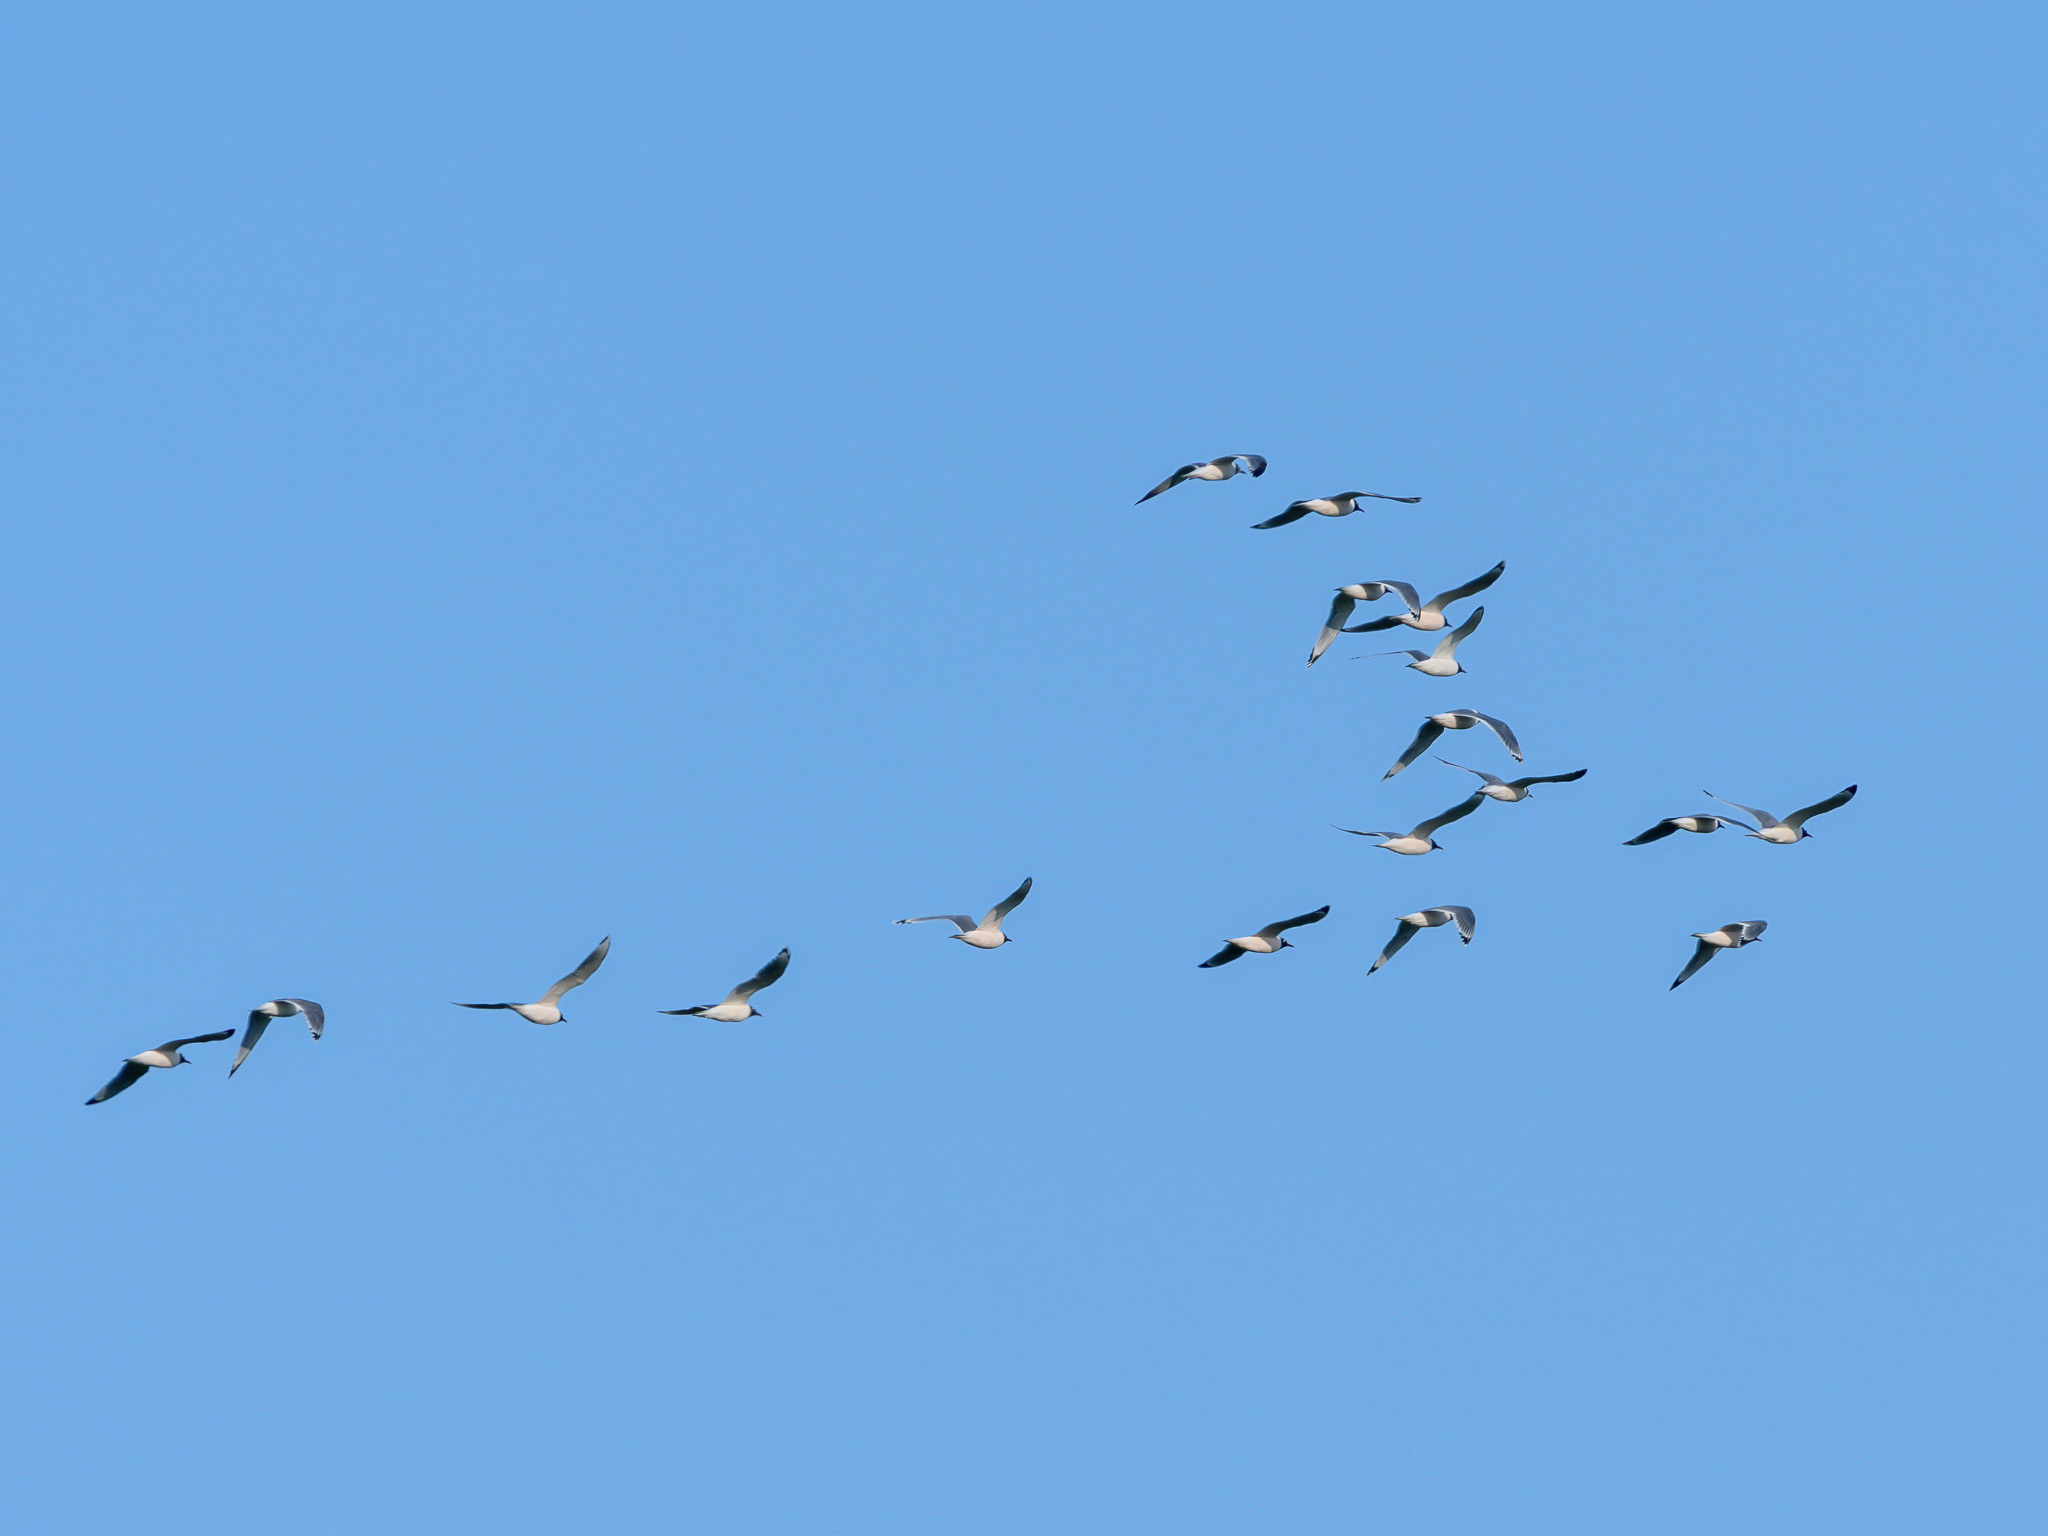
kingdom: Animalia
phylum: Chordata
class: Aves
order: Charadriiformes
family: Laridae
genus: Leucophaeus
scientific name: Leucophaeus pipixcan
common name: Franklin's gull
